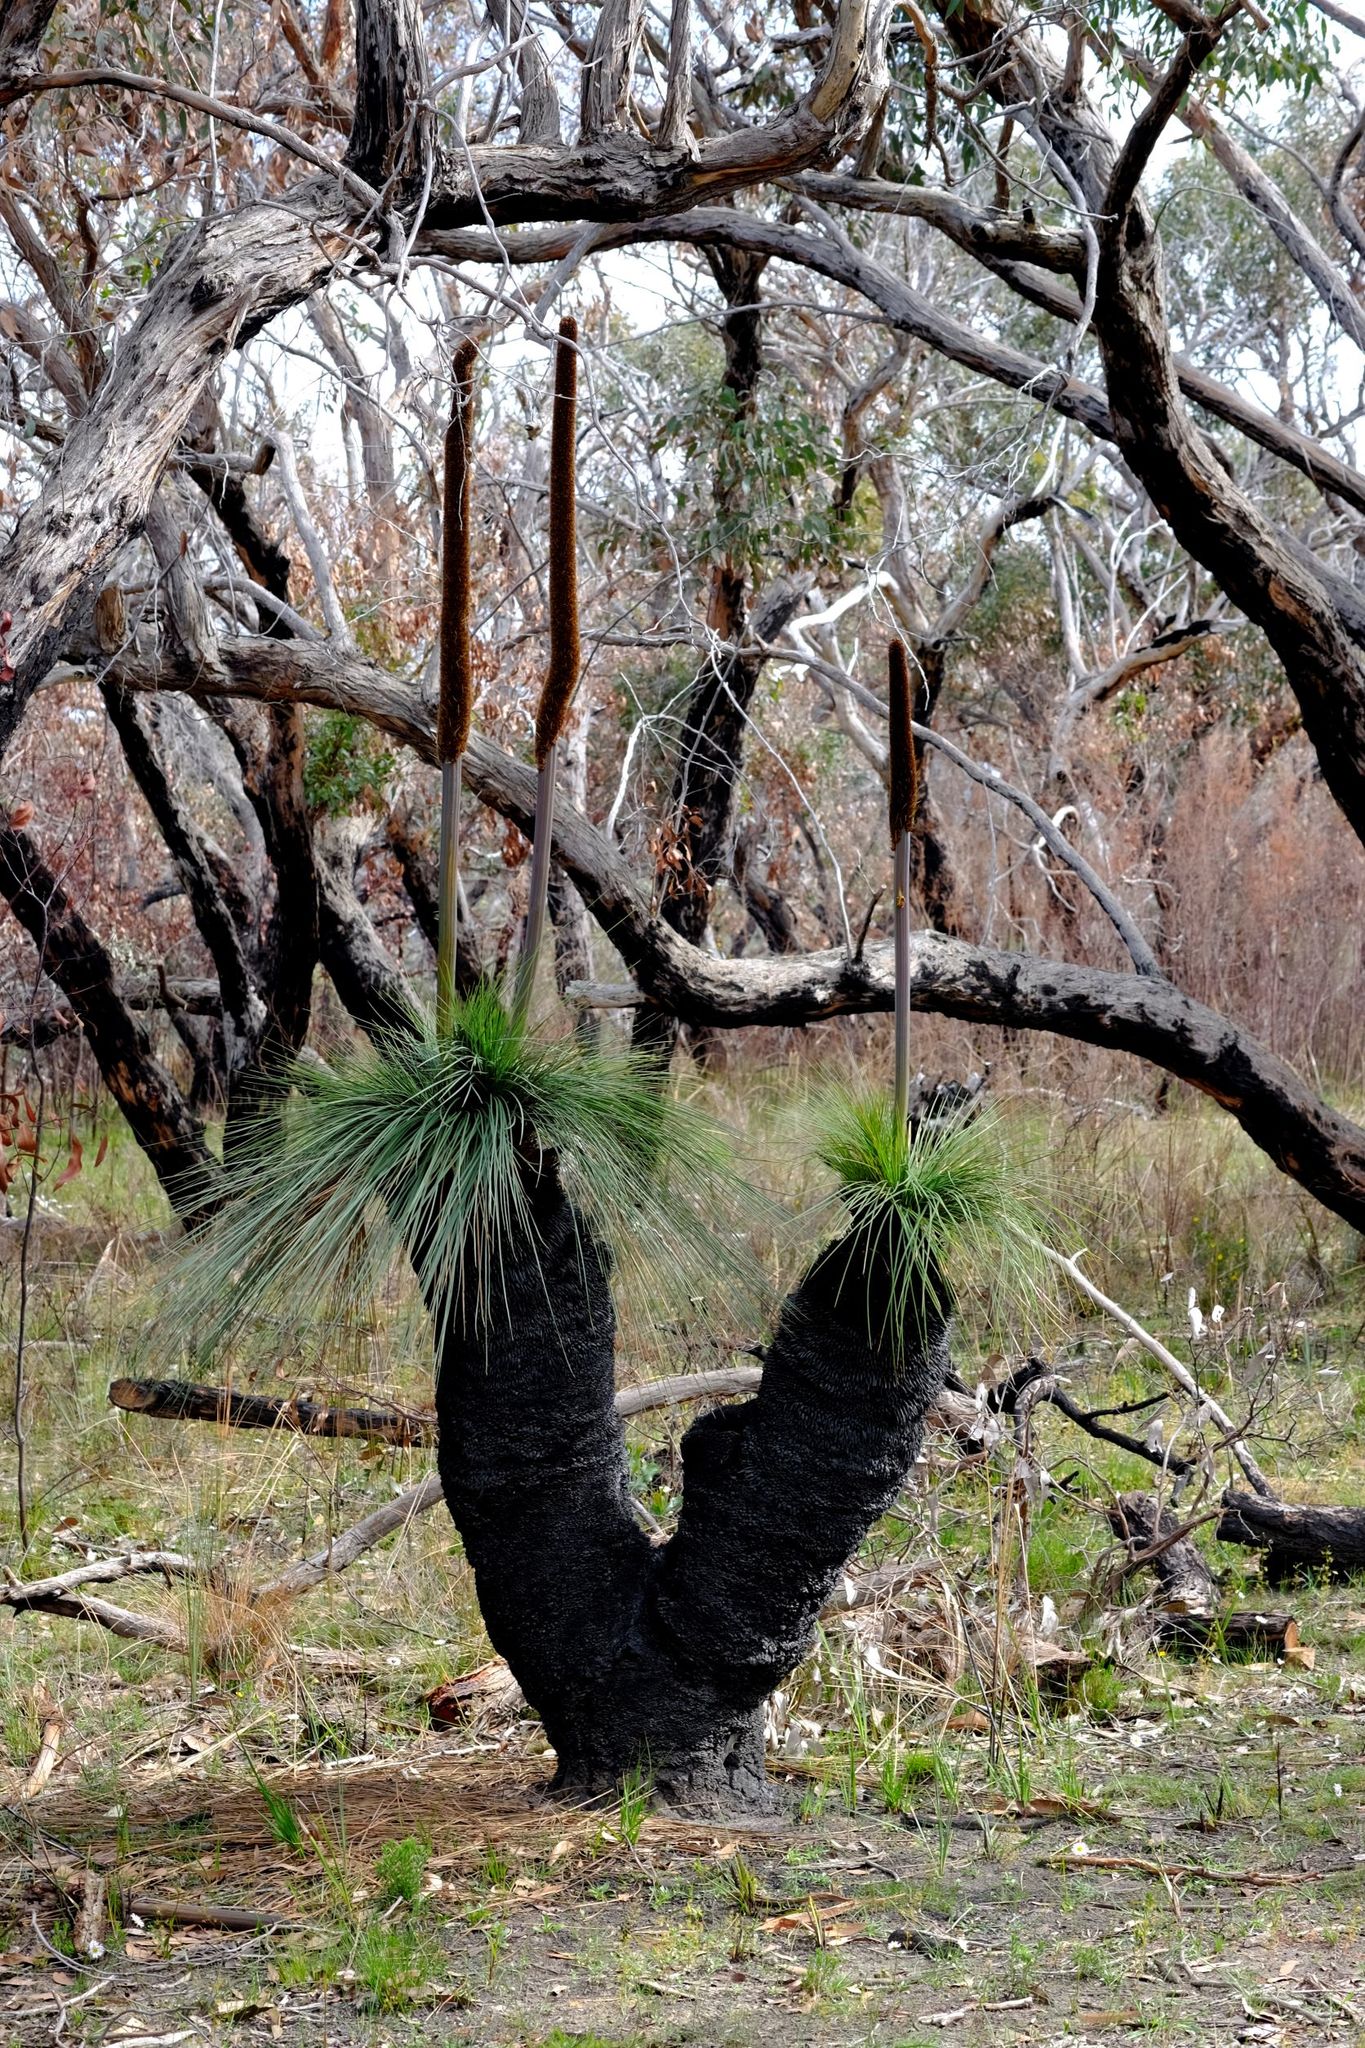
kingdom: Plantae
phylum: Tracheophyta
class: Liliopsida
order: Asparagales
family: Asphodelaceae
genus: Xanthorrhoea
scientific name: Xanthorrhoea australis
